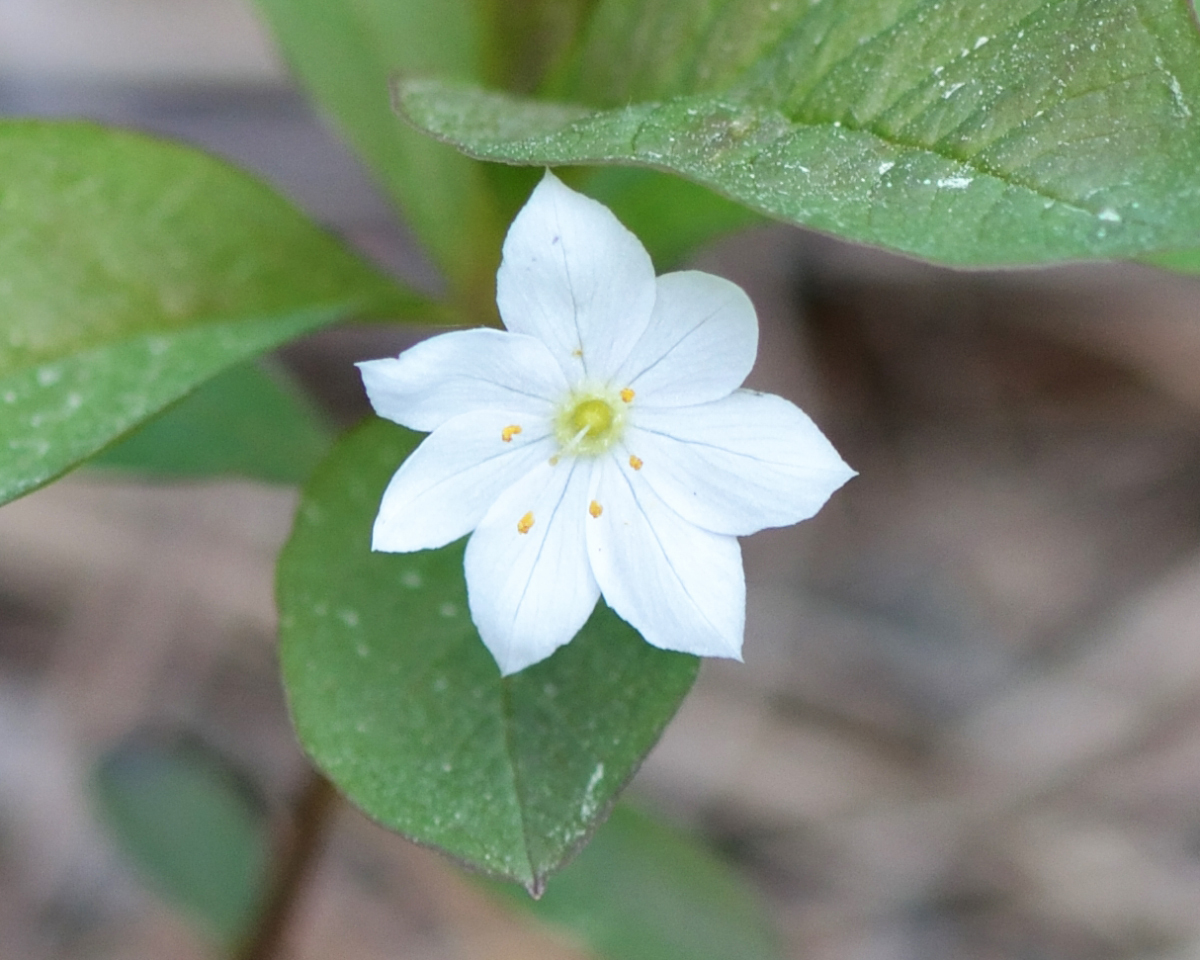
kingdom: Plantae
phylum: Tracheophyta
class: Magnoliopsida
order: Ericales
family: Primulaceae
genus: Lysimachia
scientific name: Lysimachia europaea
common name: Arctic starflower
